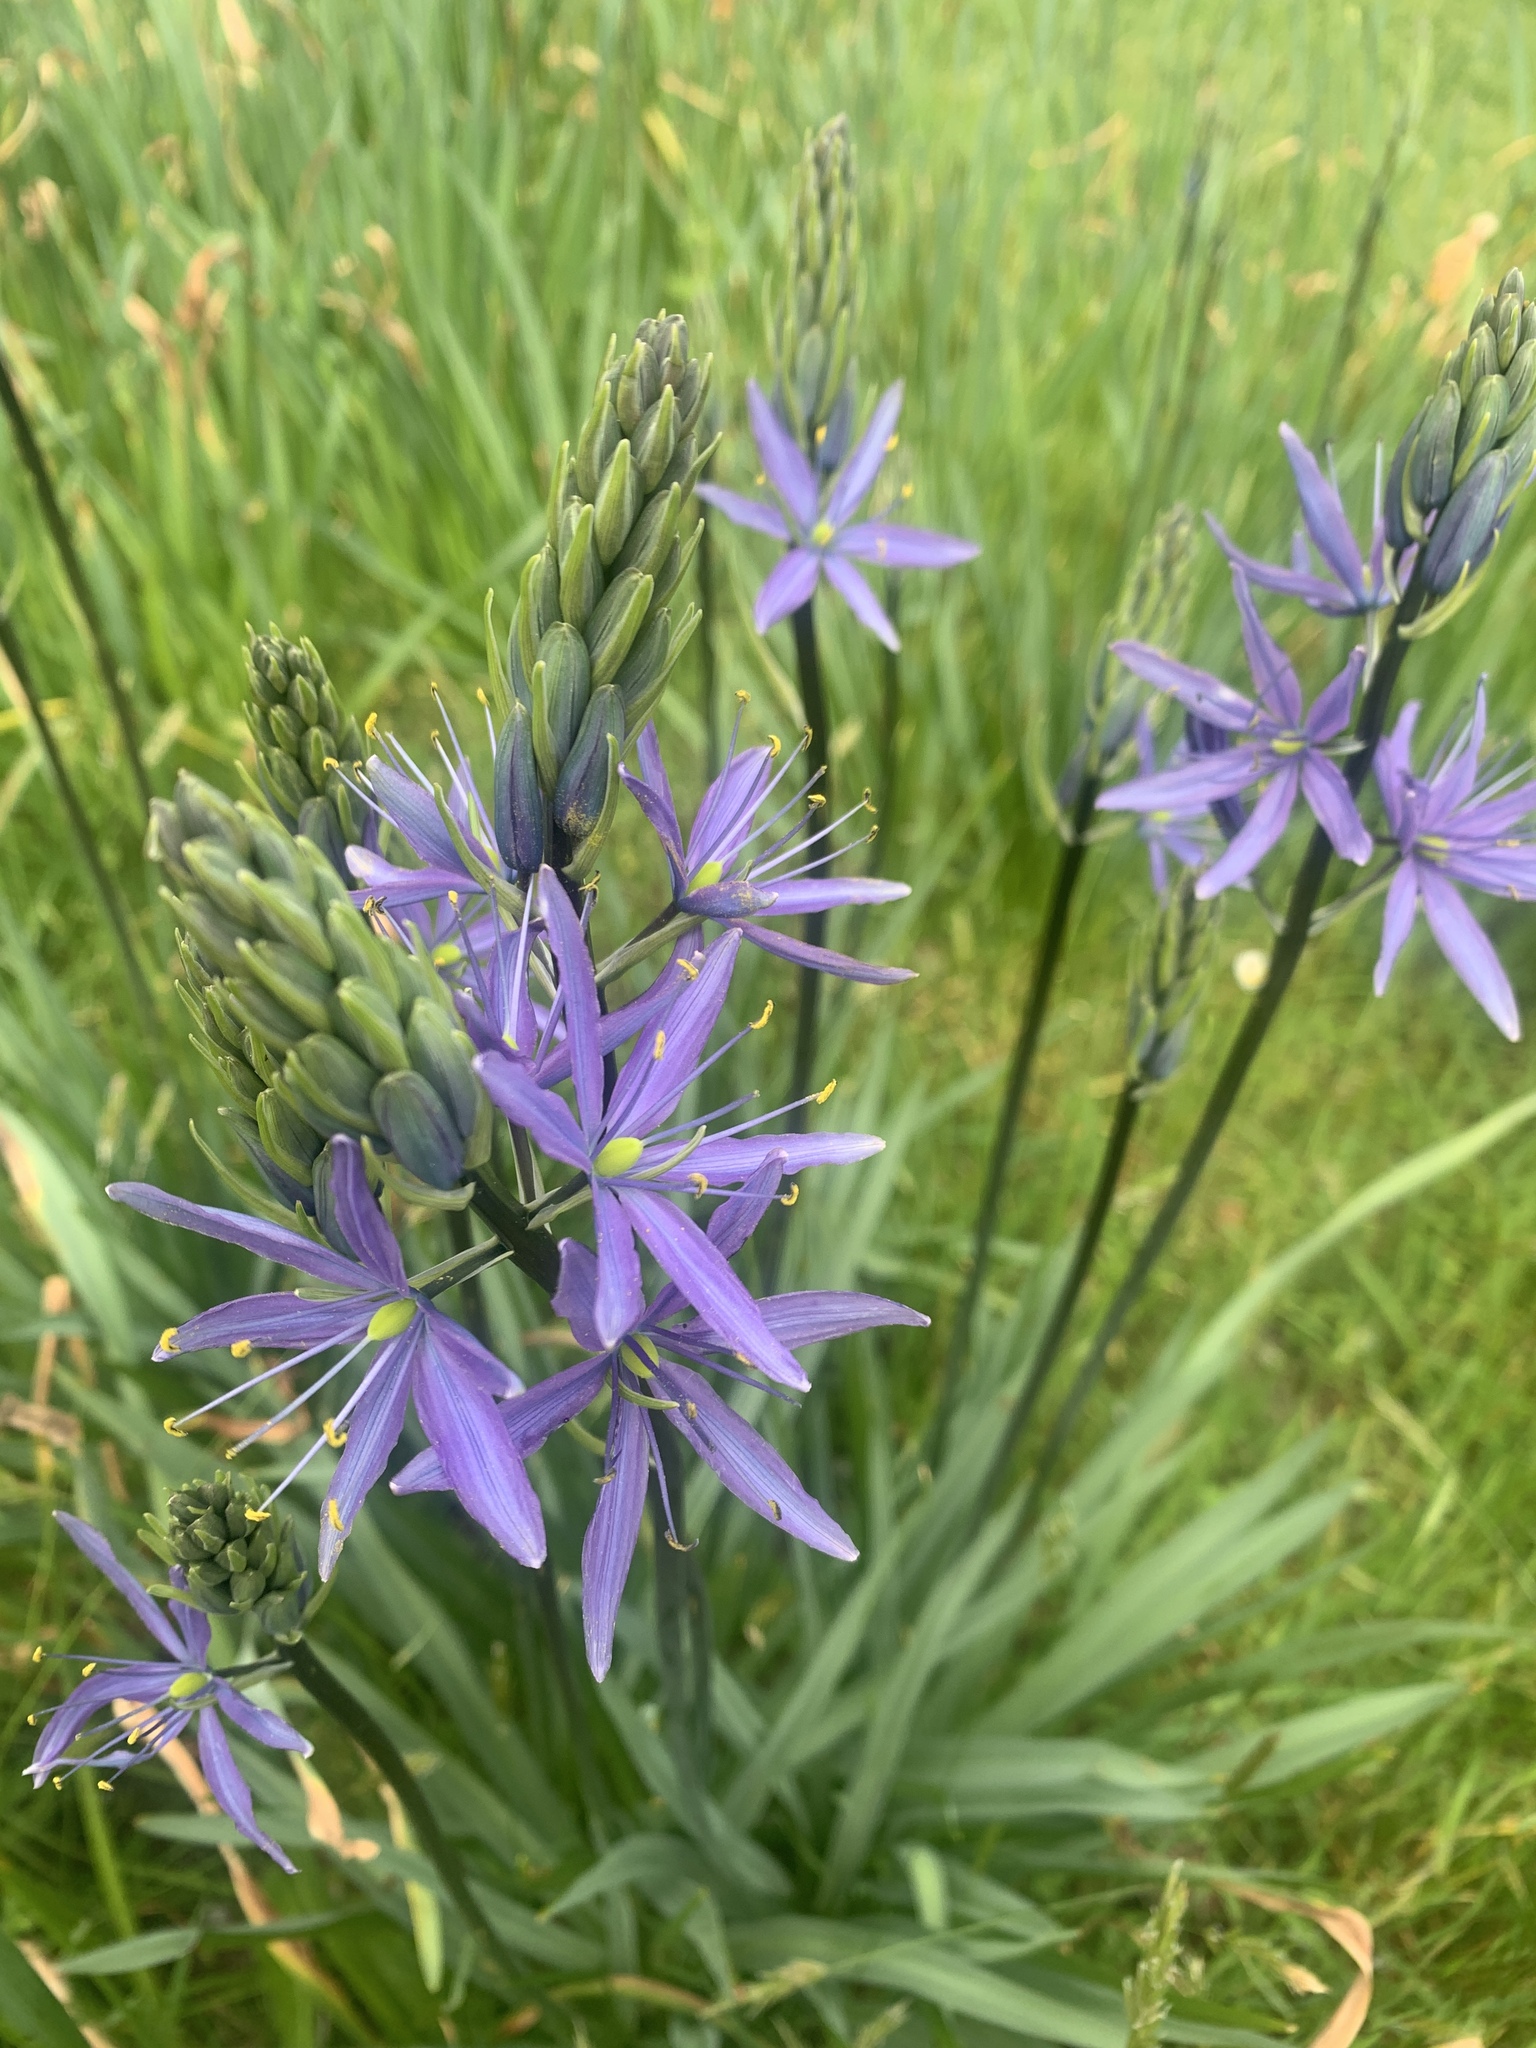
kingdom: Plantae
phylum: Tracheophyta
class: Liliopsida
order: Asparagales
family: Asparagaceae
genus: Camassia
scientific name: Camassia leichtlinii
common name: Leichtlin's camas
